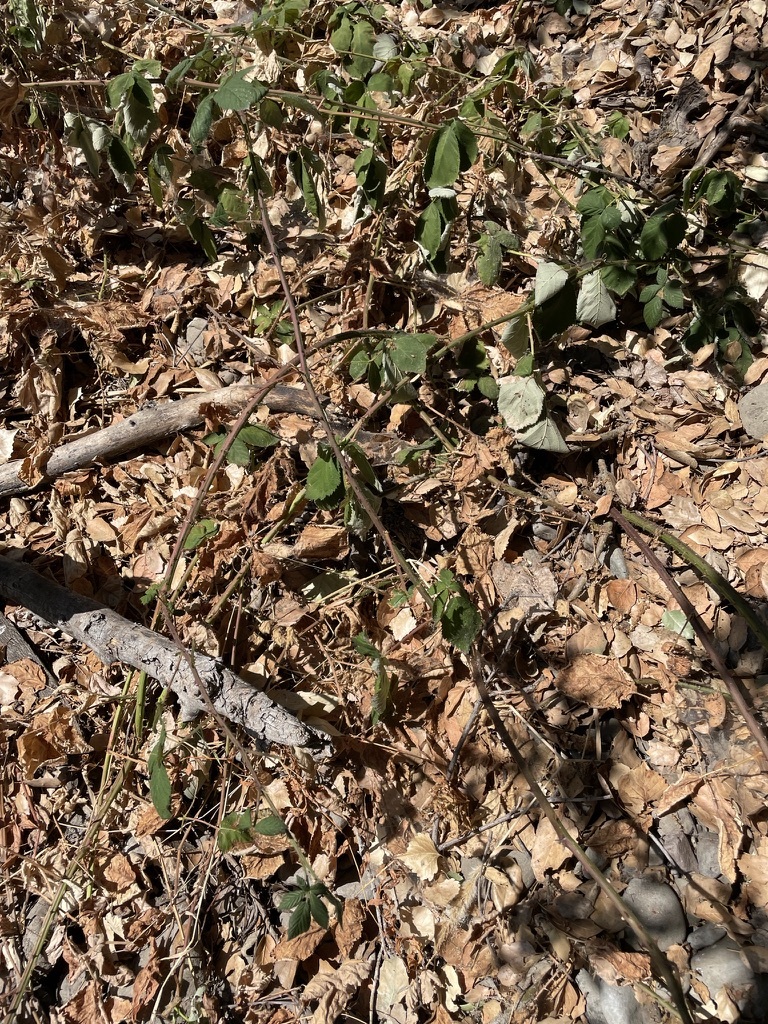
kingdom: Plantae
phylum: Tracheophyta
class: Magnoliopsida
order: Rosales
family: Rosaceae
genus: Rubus
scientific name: Rubus armeniacus
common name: Himalayan blackberry
